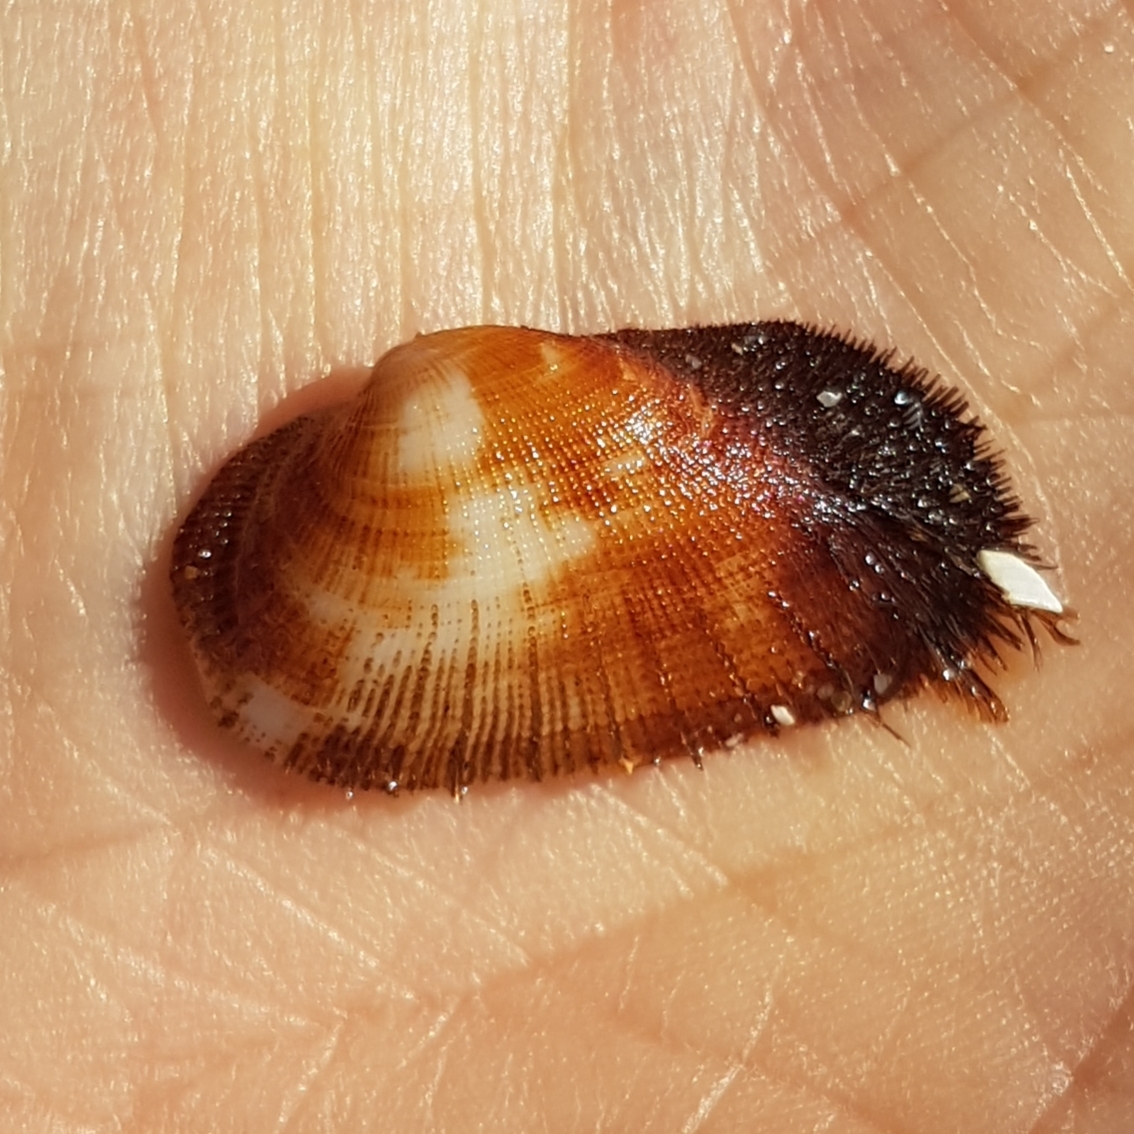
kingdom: Animalia
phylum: Mollusca
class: Bivalvia
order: Arcida
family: Arcidae
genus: Barbatia
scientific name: Barbatia barbata
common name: Bearded ark
